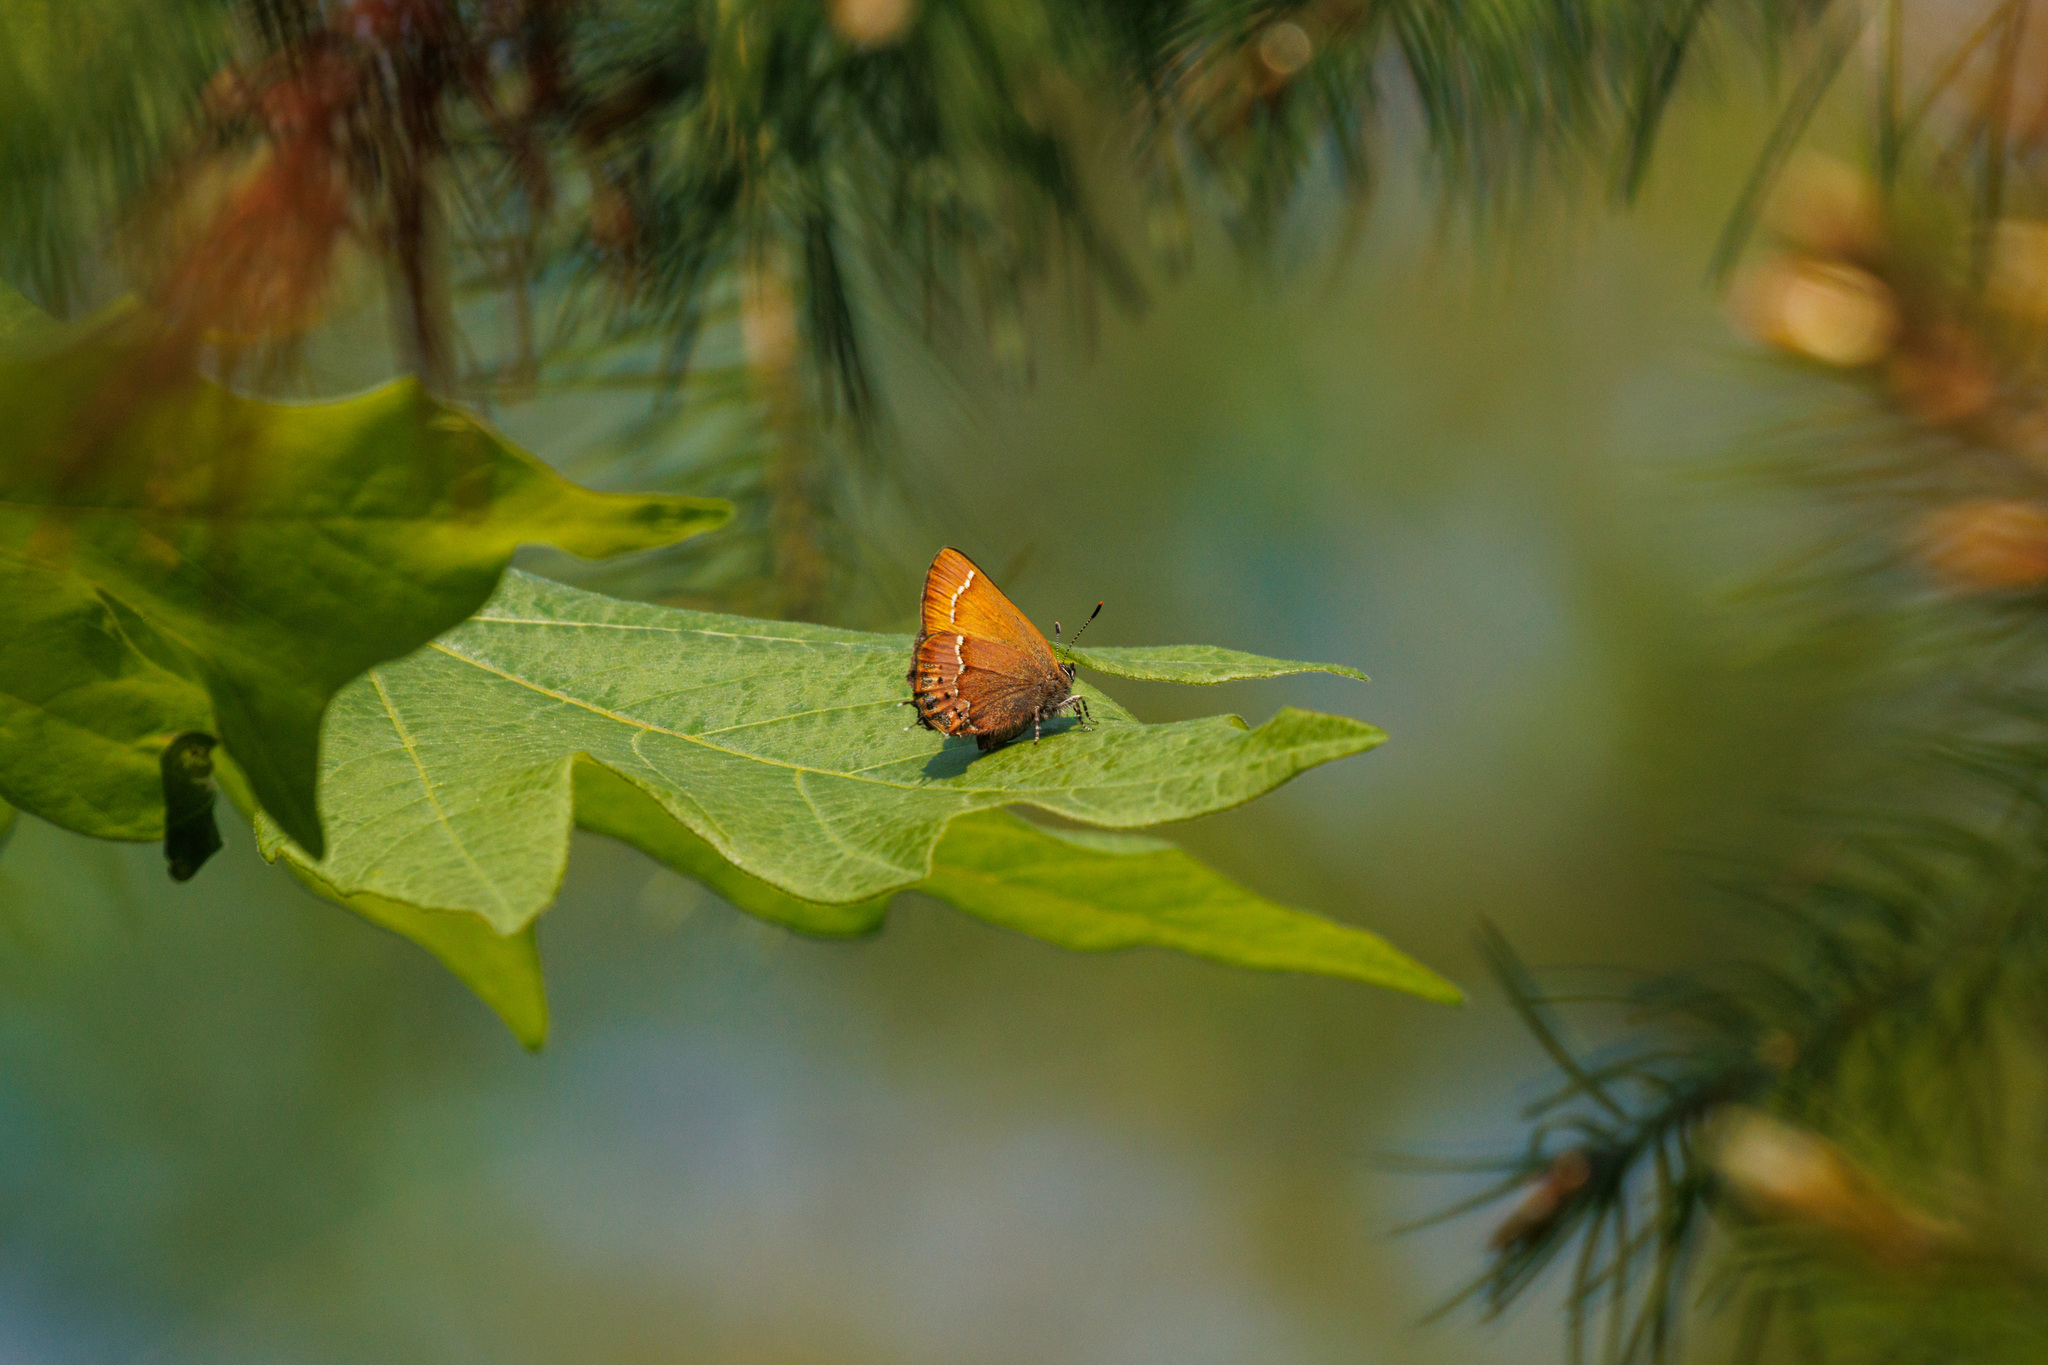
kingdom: Animalia
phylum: Arthropoda
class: Insecta
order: Lepidoptera
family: Lycaenidae
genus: Mitoura
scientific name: Mitoura gryneus
